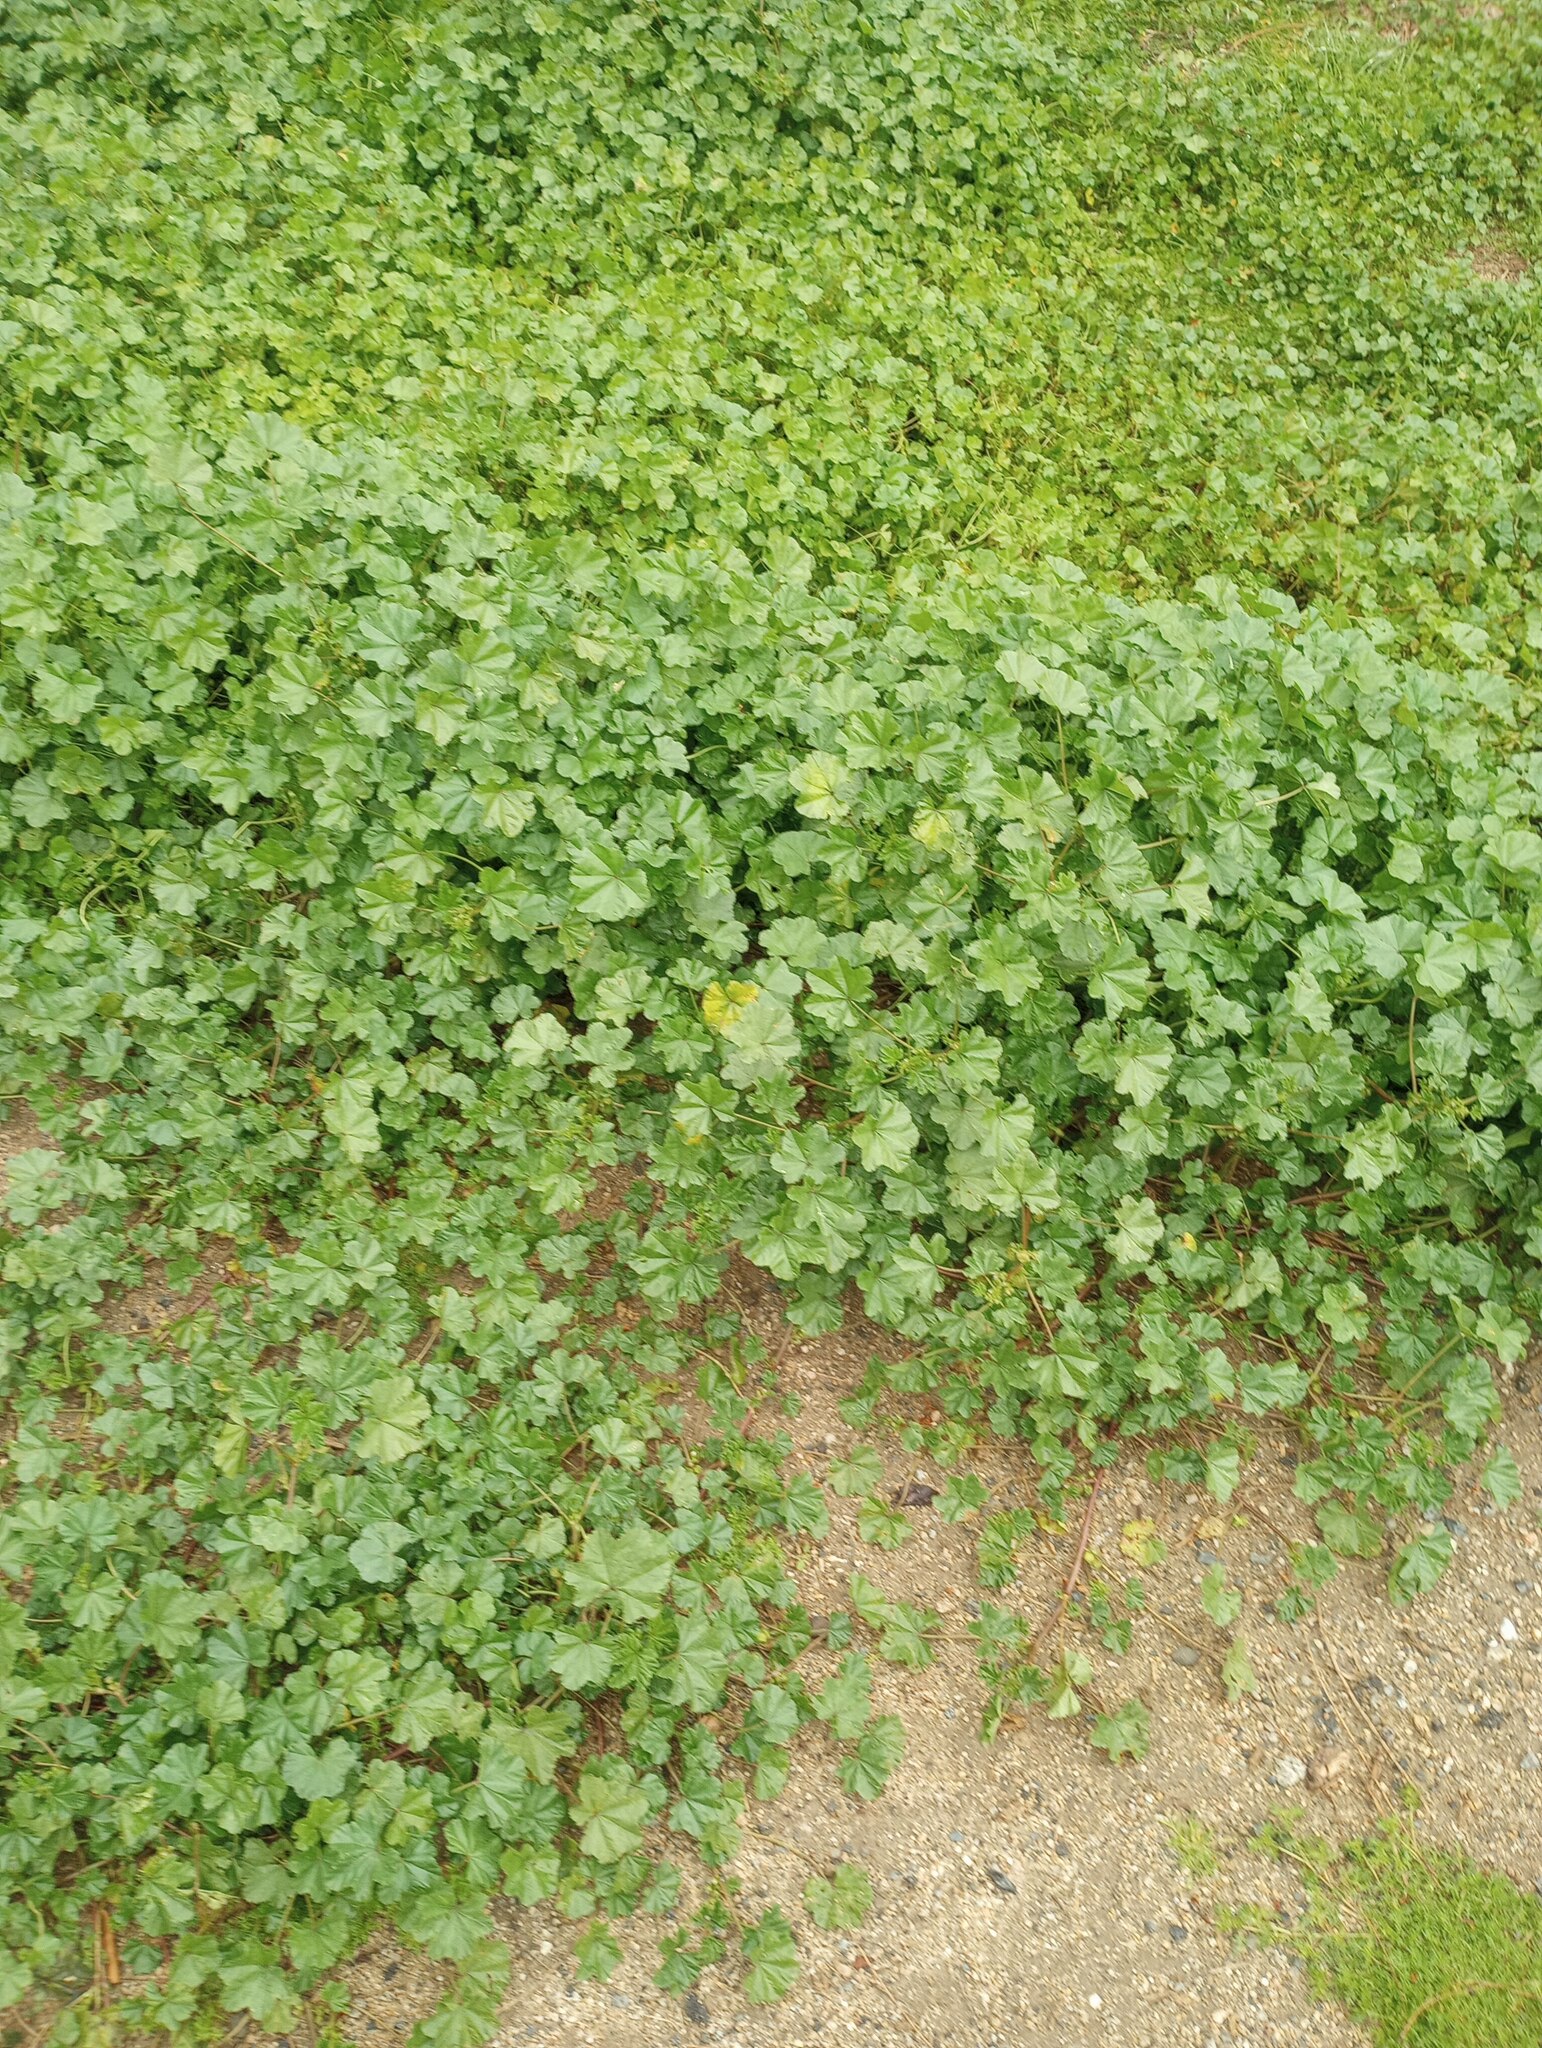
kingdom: Plantae
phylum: Tracheophyta
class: Magnoliopsida
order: Malvales
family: Malvaceae
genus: Malva
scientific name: Malva parviflora
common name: Least mallow
